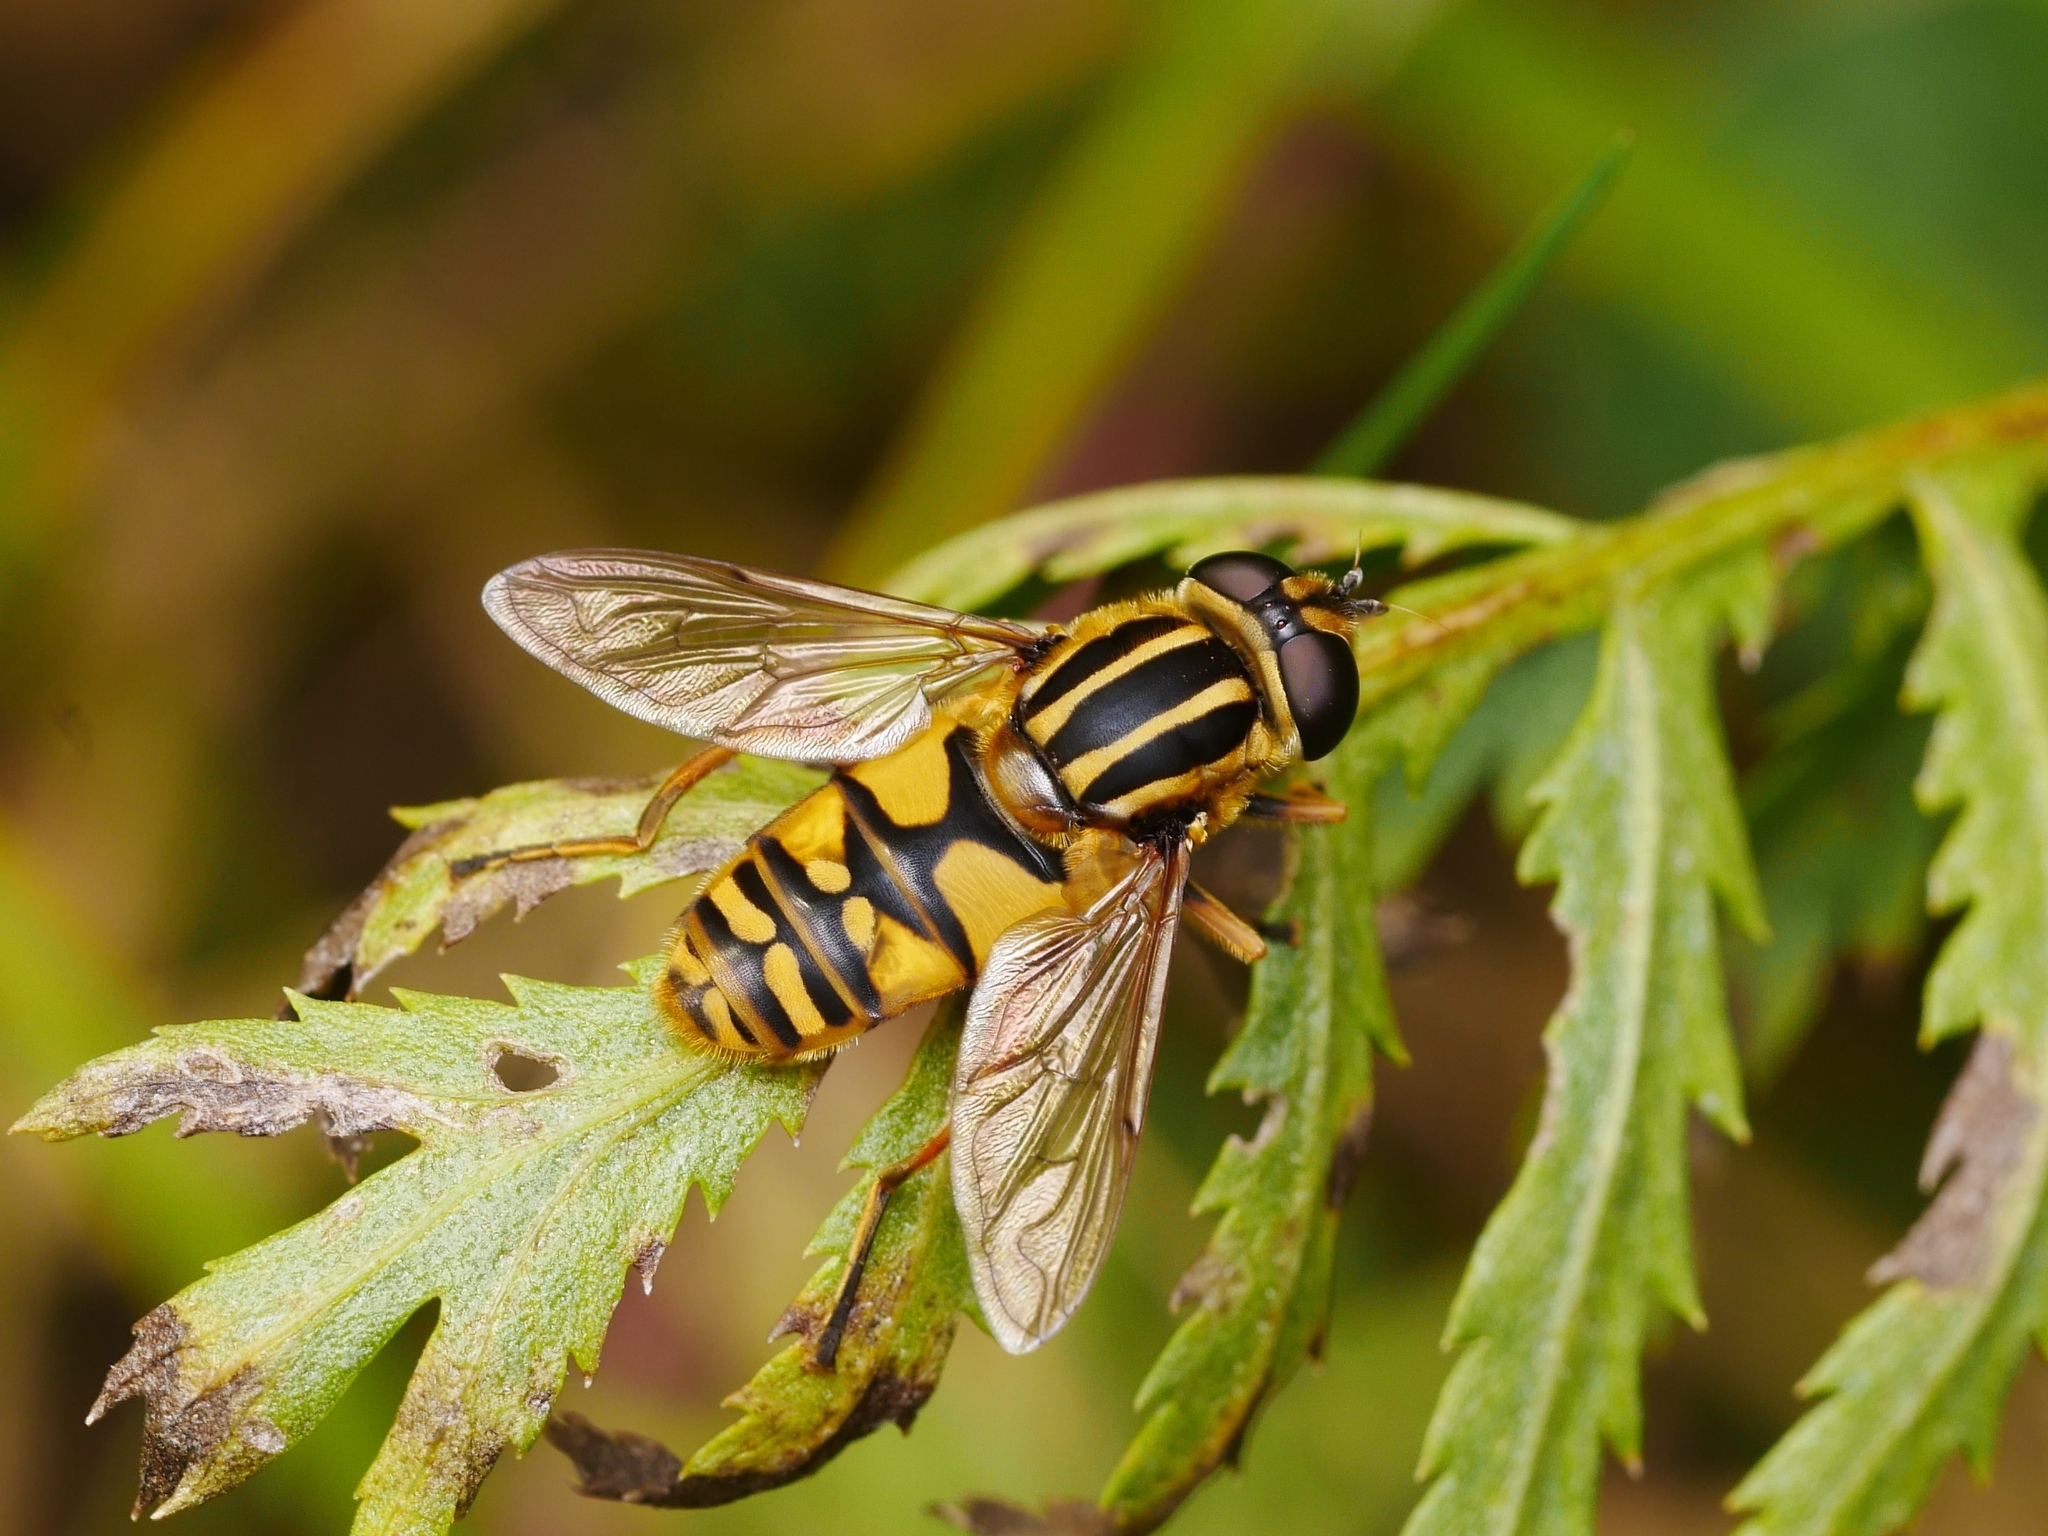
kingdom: Animalia
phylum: Arthropoda
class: Insecta
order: Diptera
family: Syrphidae
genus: Helophilus
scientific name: Helophilus pendulus
